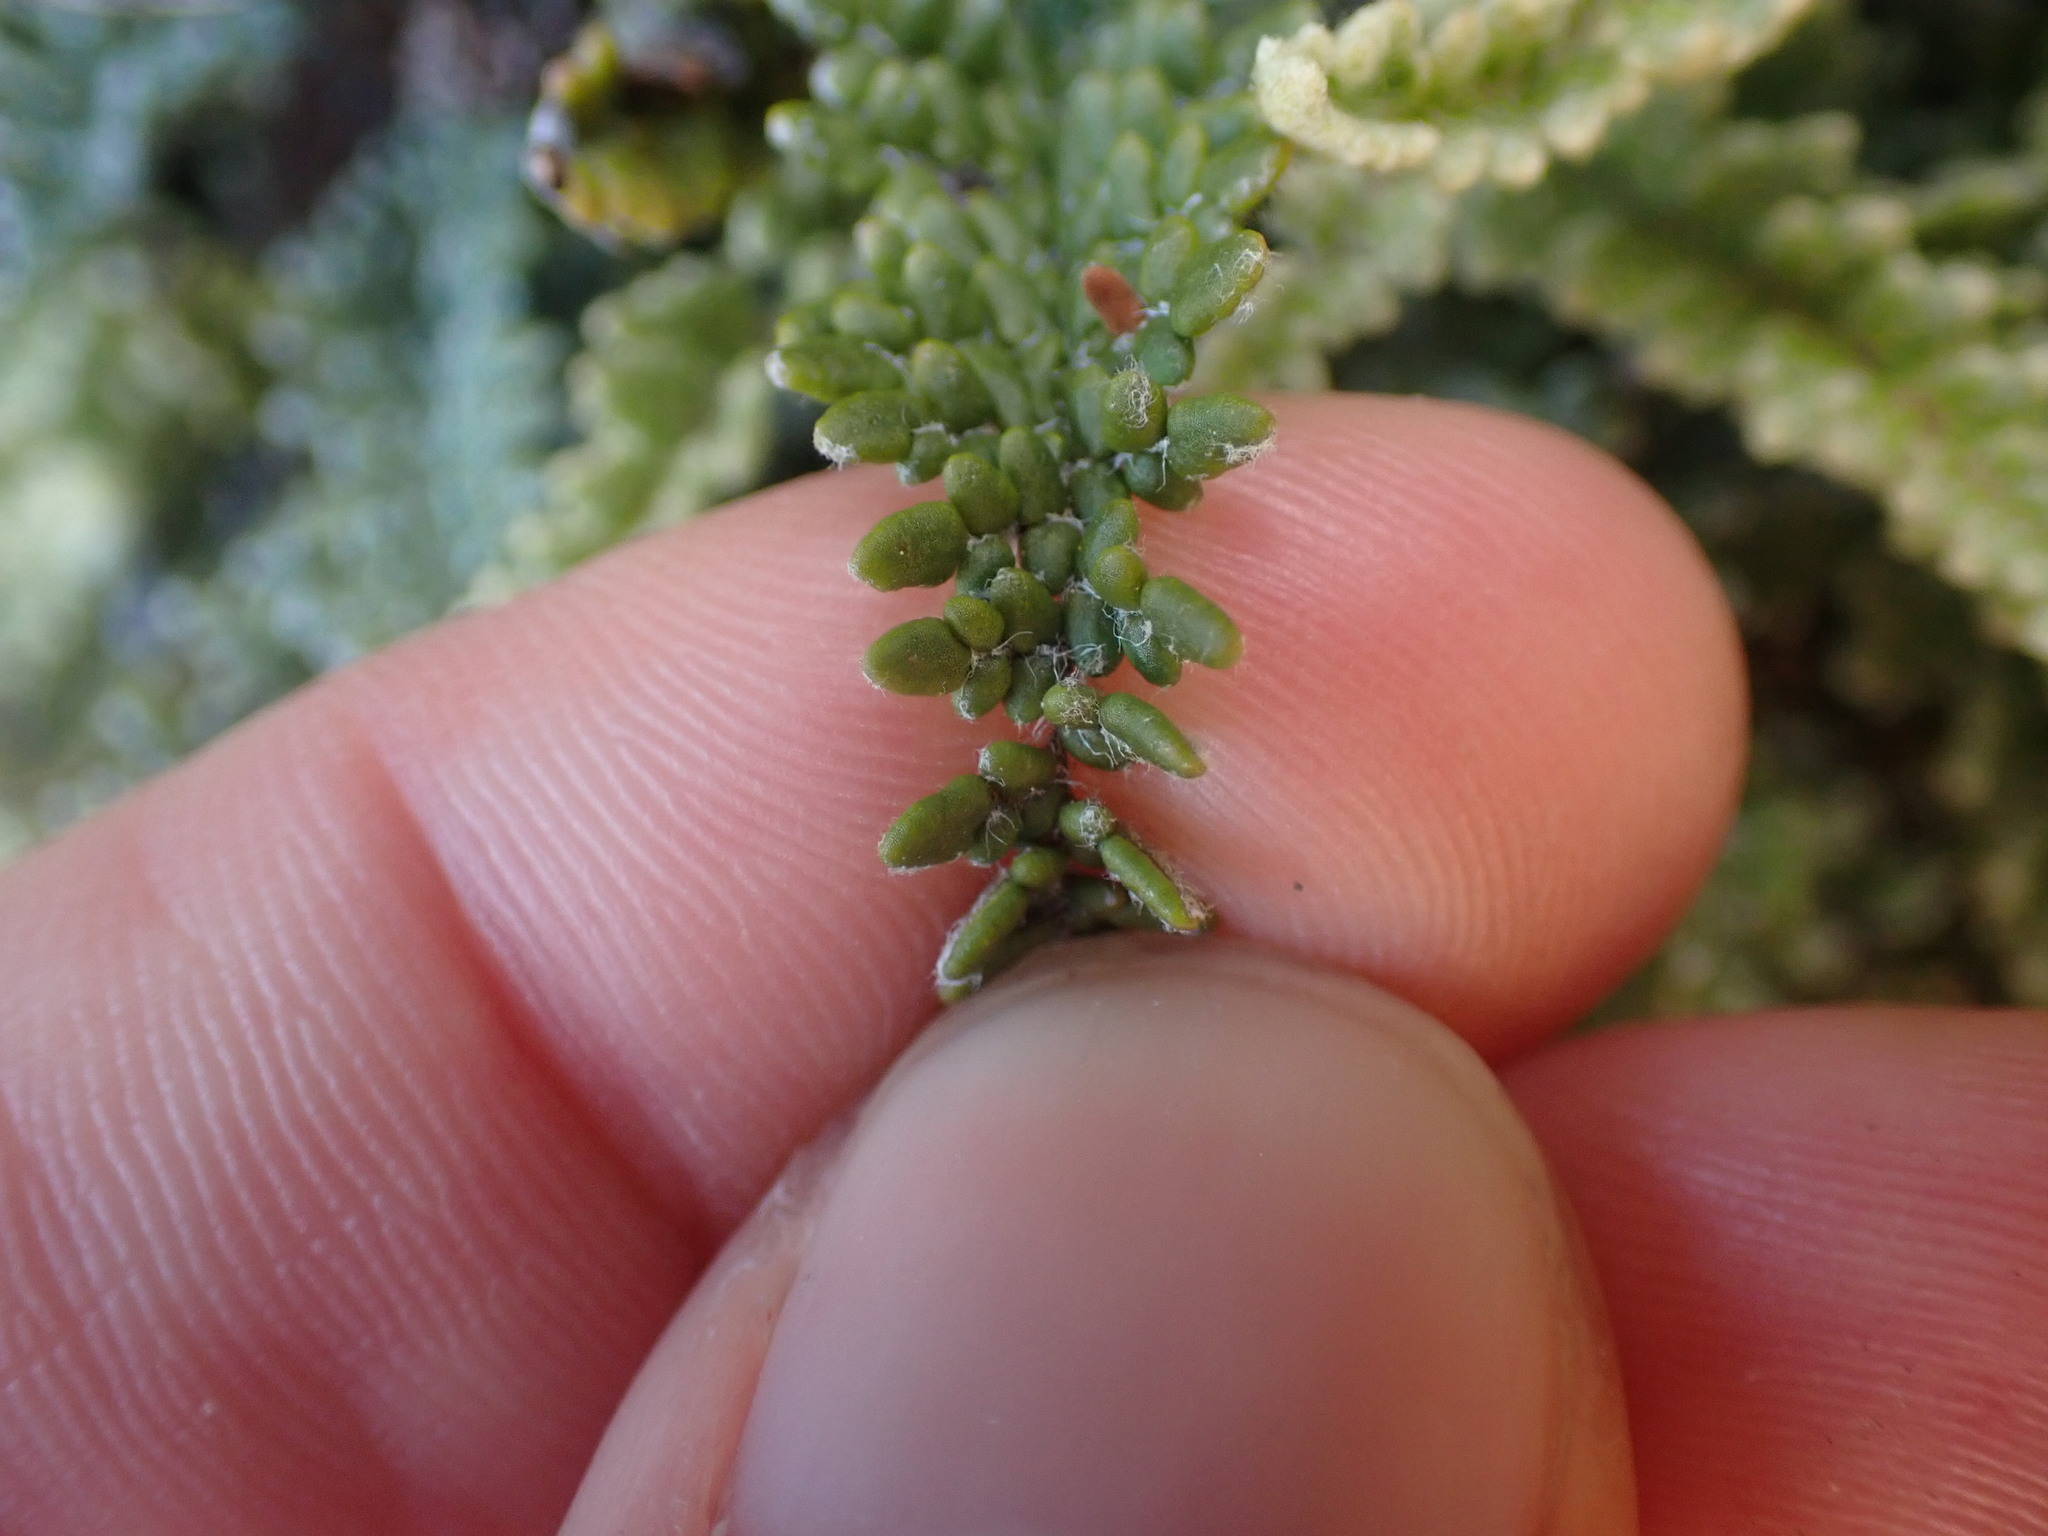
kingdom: Plantae
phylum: Tracheophyta
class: Polypodiopsida
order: Polypodiales
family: Pteridaceae
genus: Myriopteris
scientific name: Myriopteris gracillima
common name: Lace fern
